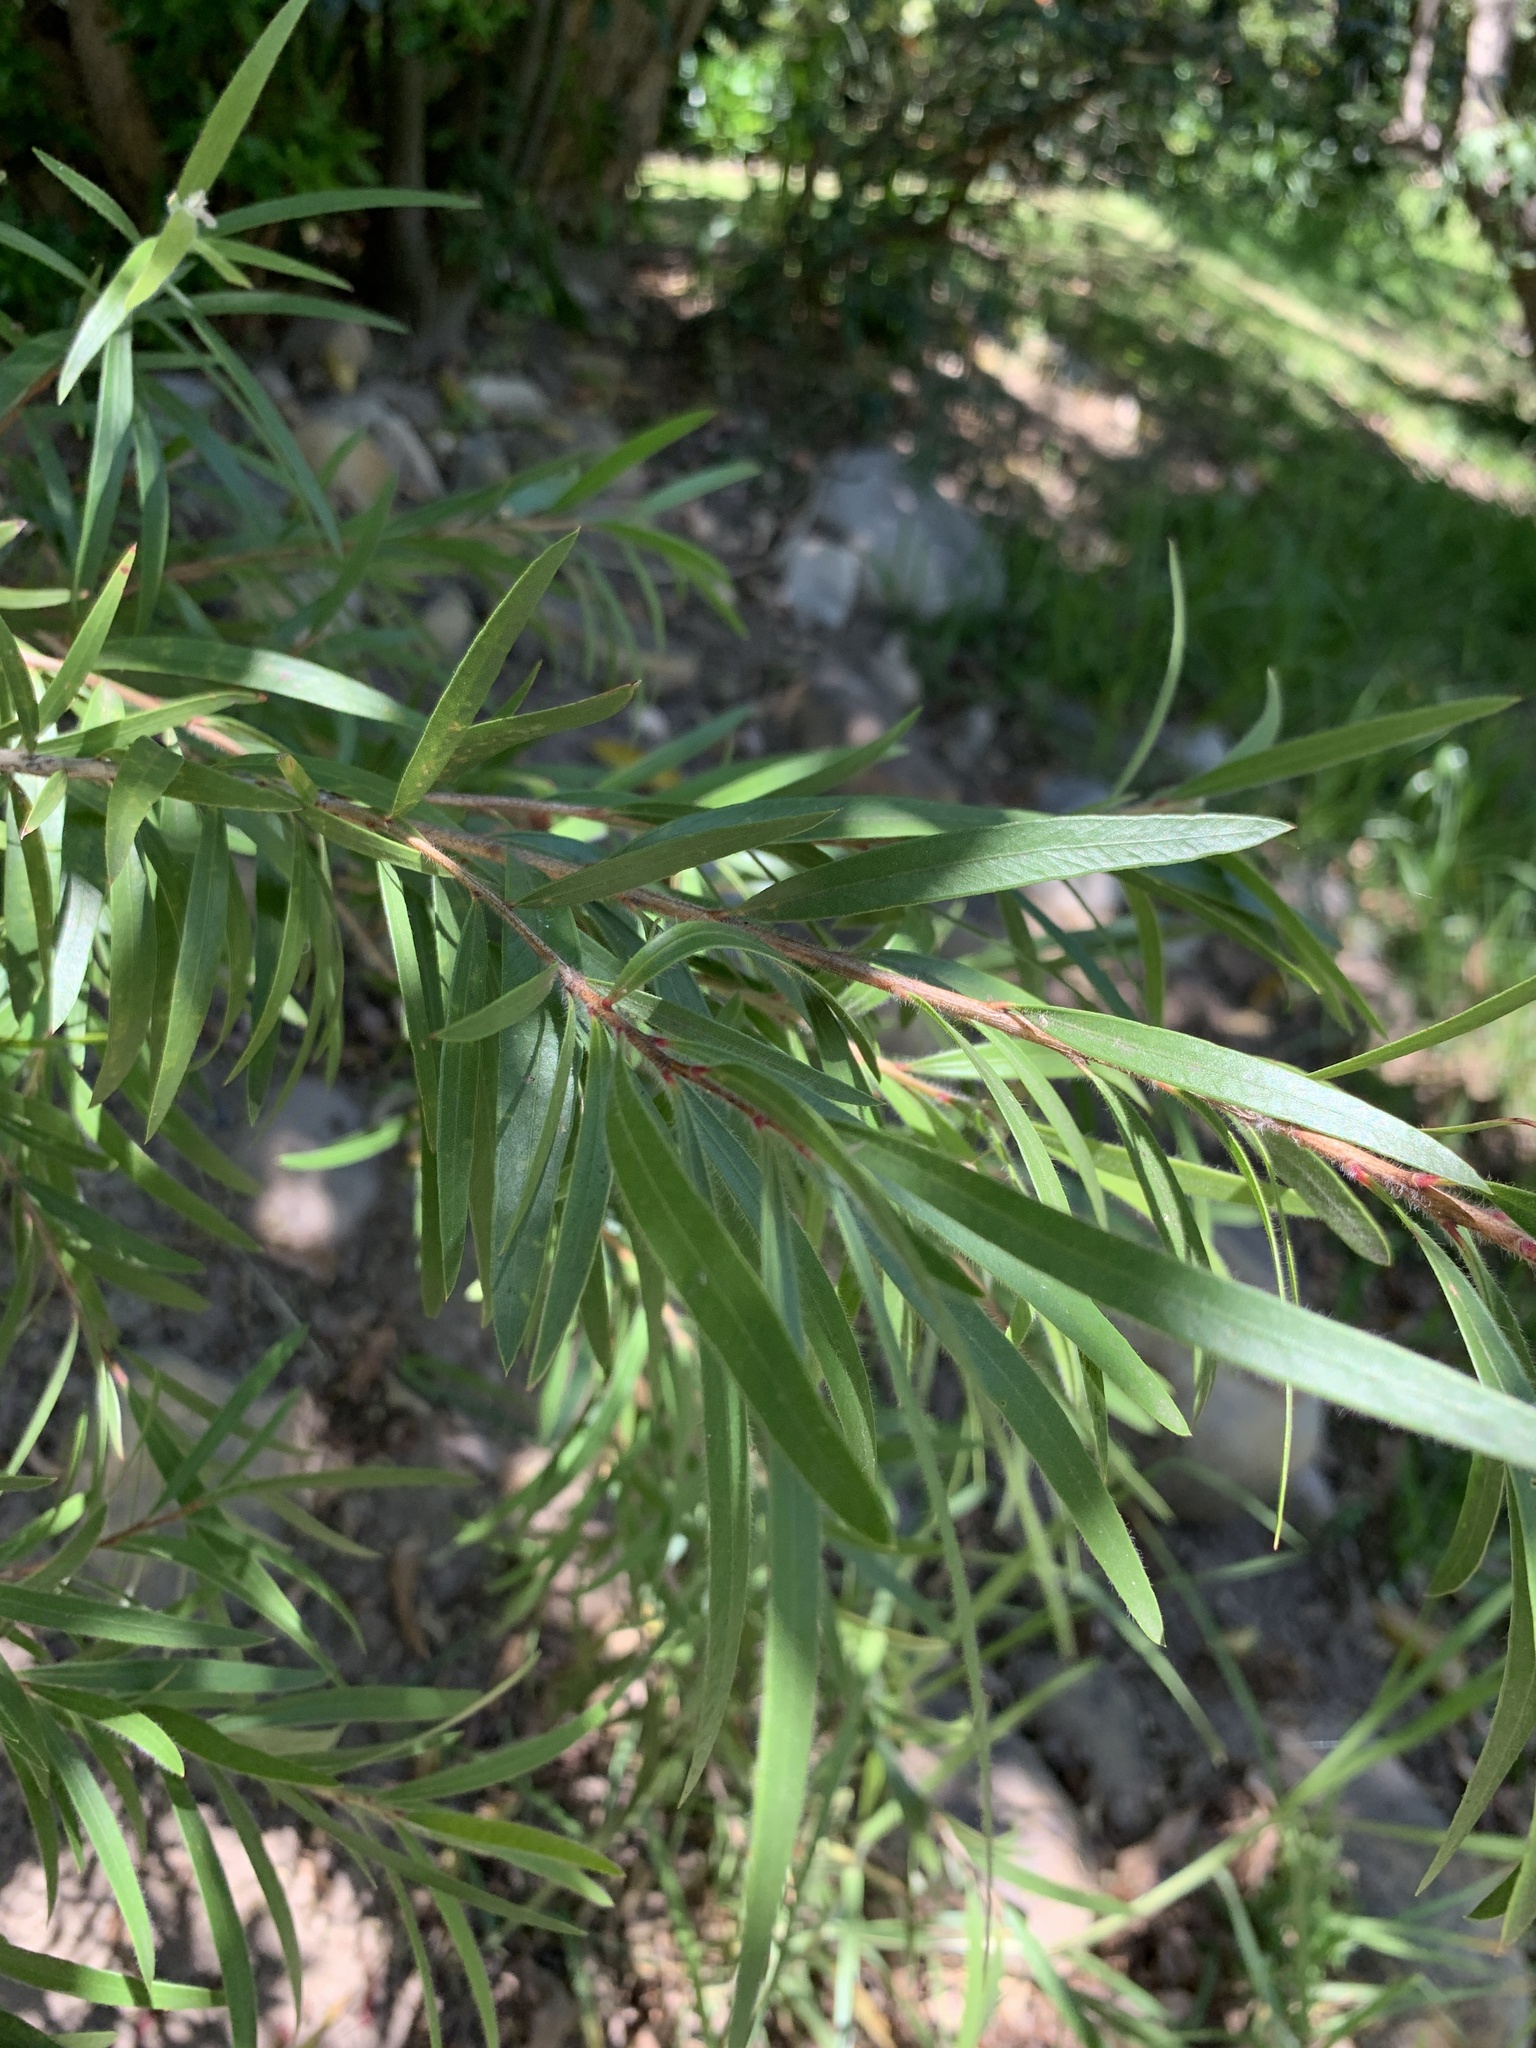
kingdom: Plantae
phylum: Tracheophyta
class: Magnoliopsida
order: Myrtales
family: Myrtaceae
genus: Callistemon
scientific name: Callistemon viminalis
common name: Drooping bottlebrush
